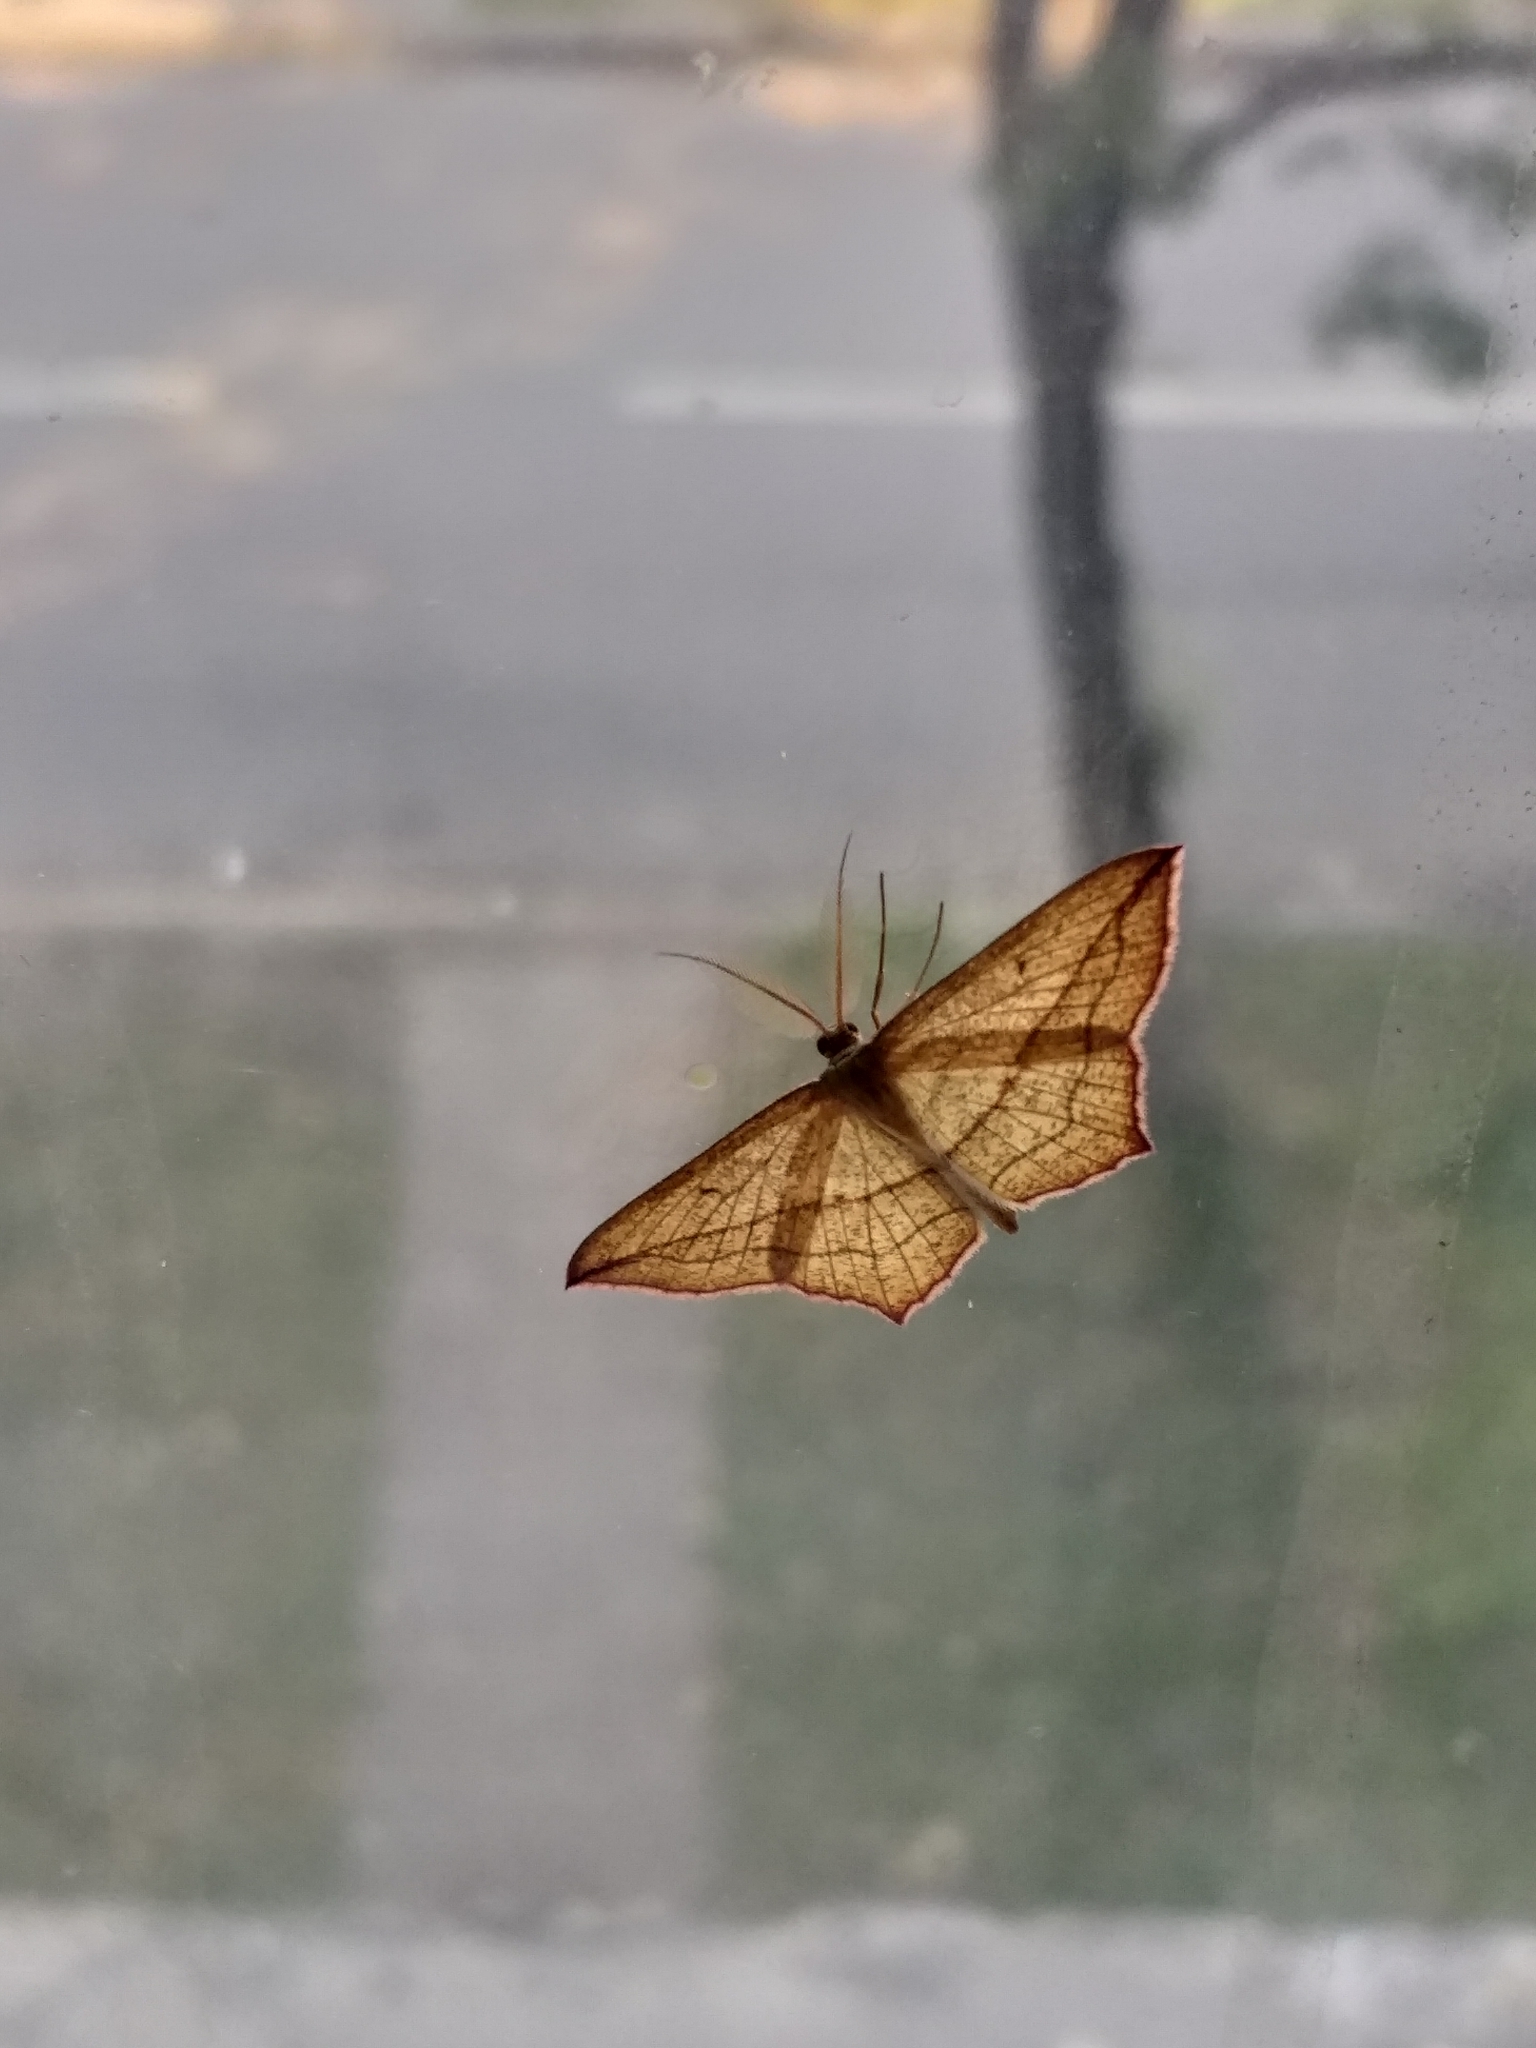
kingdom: Animalia
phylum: Arthropoda
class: Insecta
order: Lepidoptera
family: Geometridae
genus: Timandra
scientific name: Timandra comae
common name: Blood-vein
